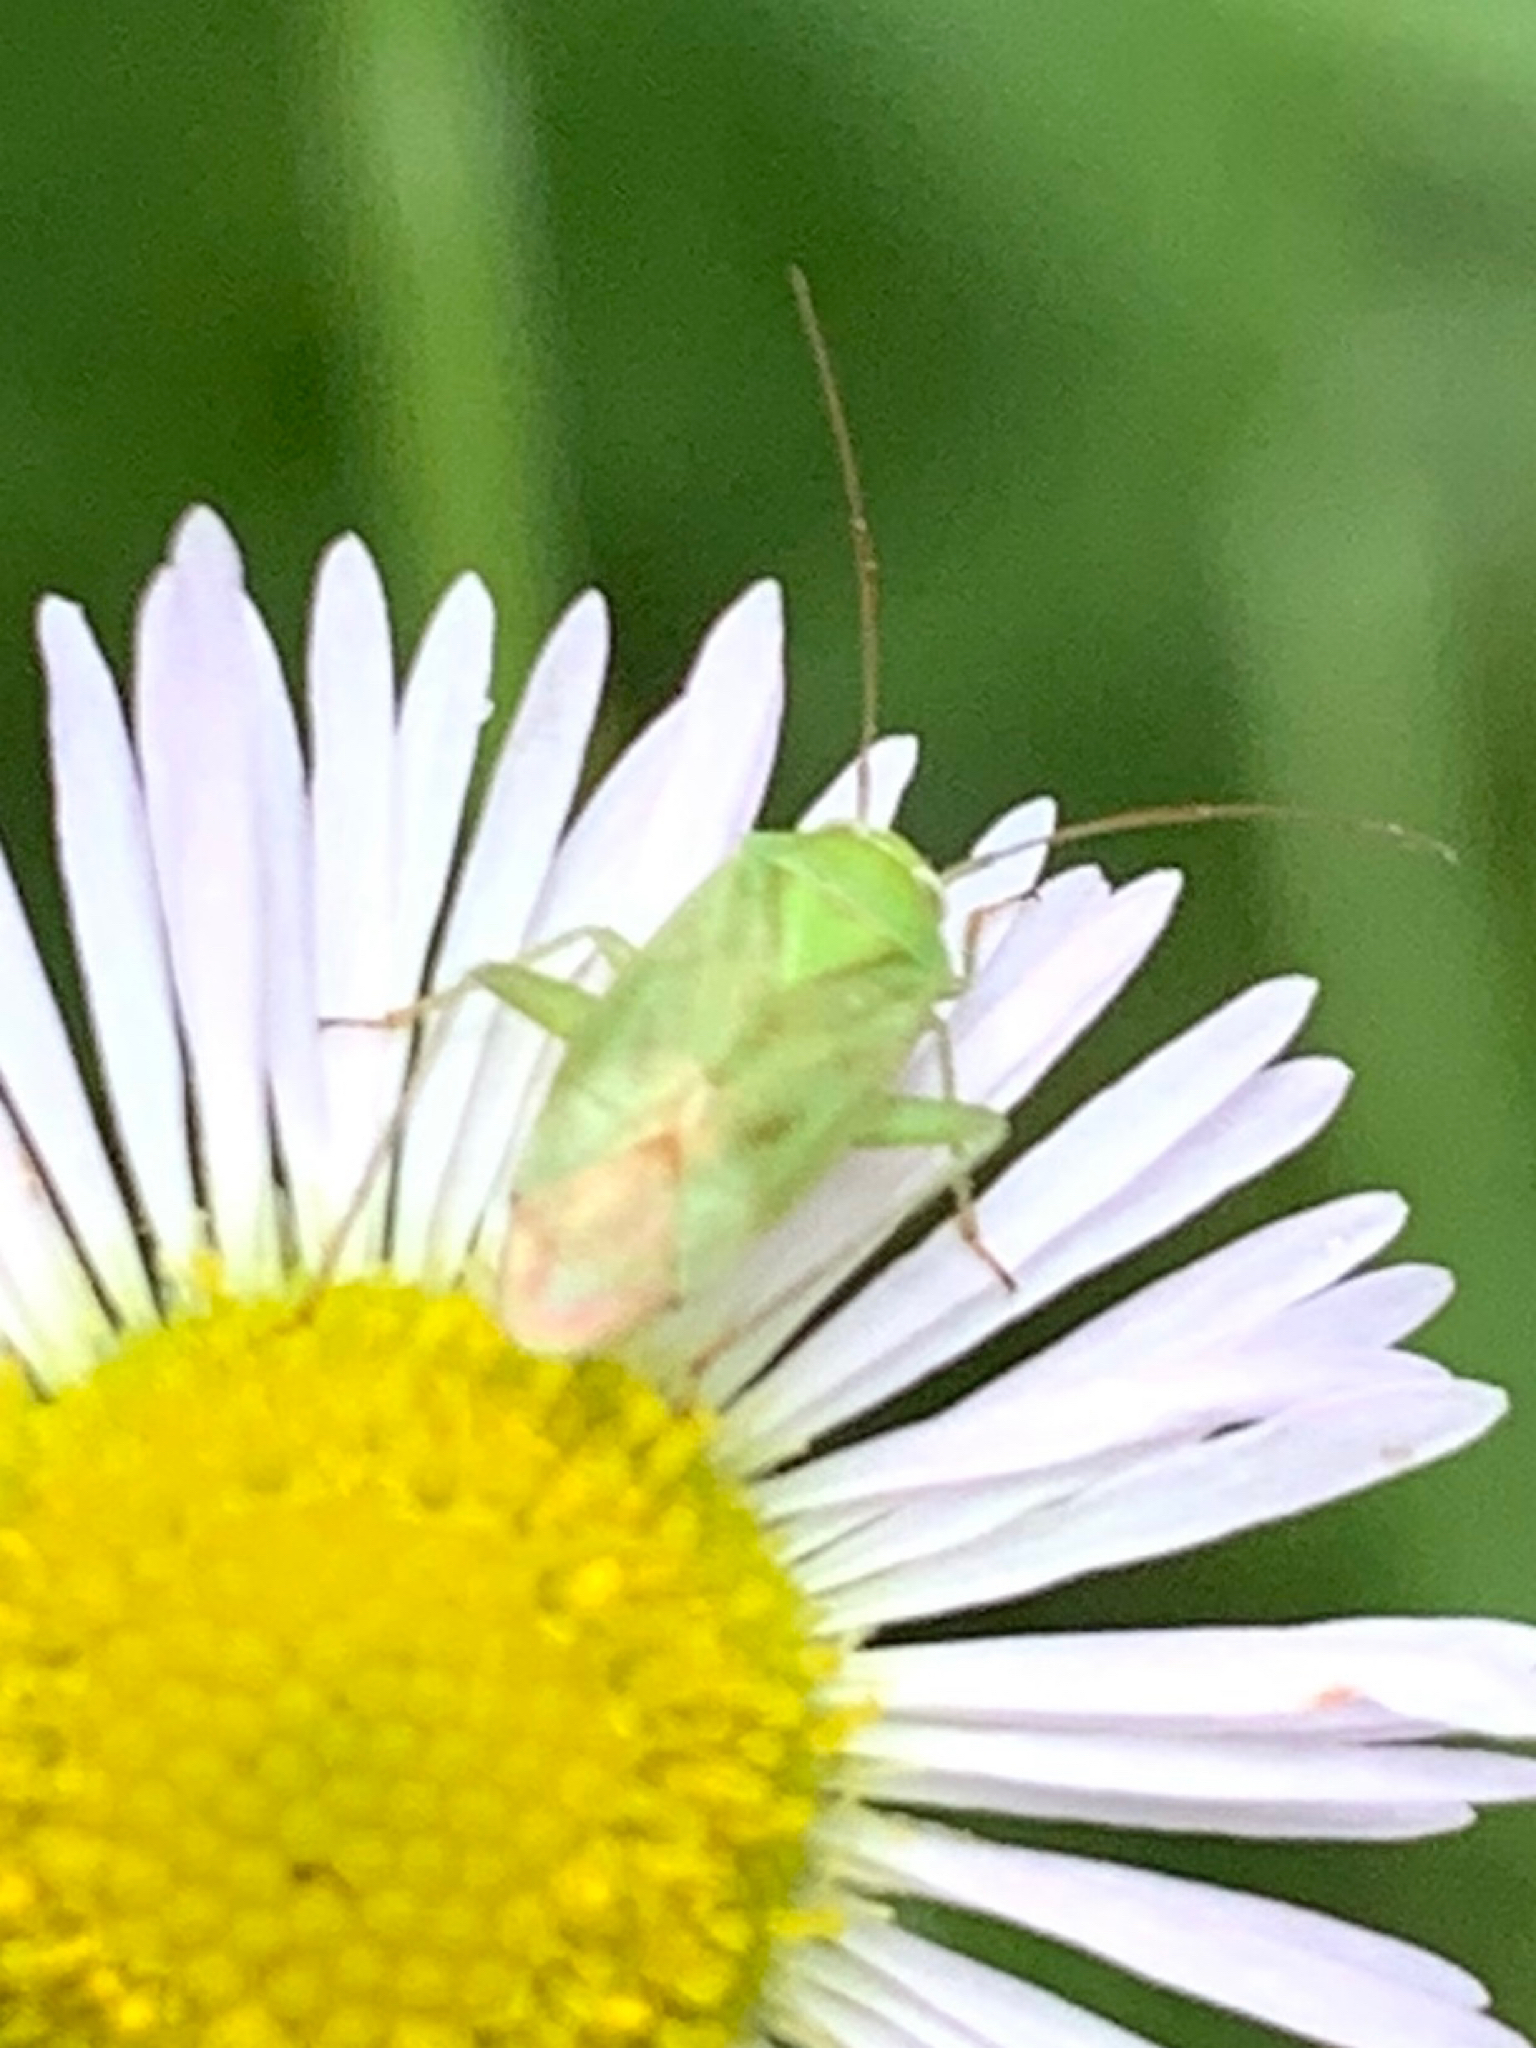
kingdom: Animalia
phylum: Arthropoda
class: Insecta
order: Hemiptera
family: Miridae
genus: Taylorilygus
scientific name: Taylorilygus apicalis
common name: Plant bug
